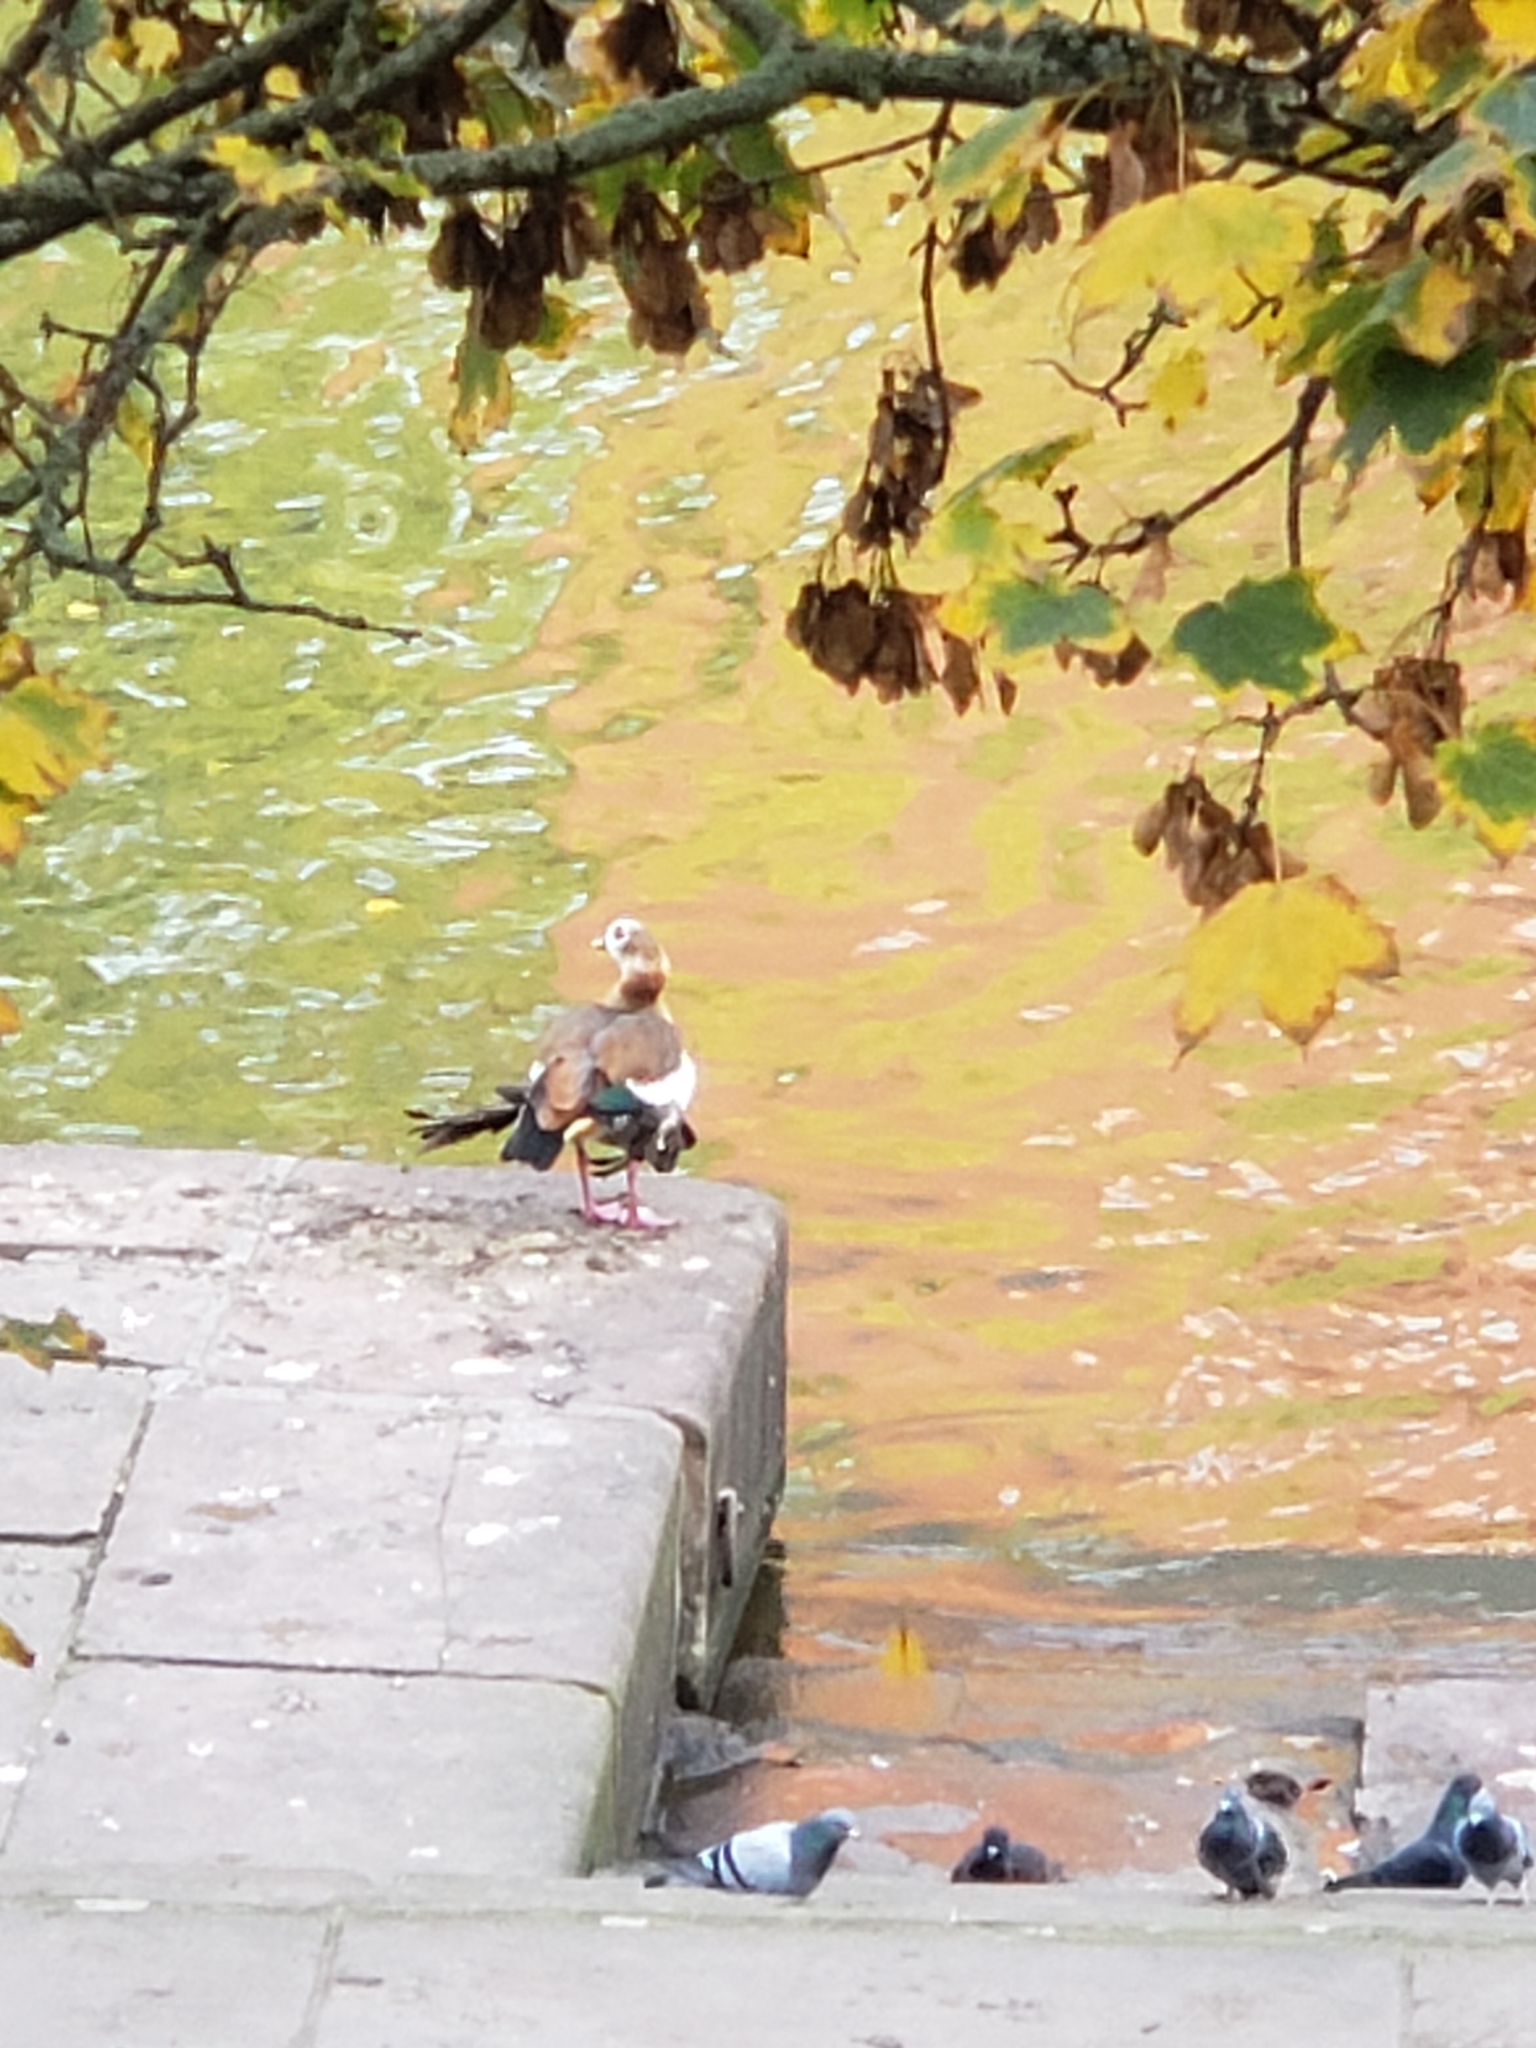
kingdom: Animalia
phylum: Chordata
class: Aves
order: Anseriformes
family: Anatidae
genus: Alopochen
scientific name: Alopochen aegyptiaca
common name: Egyptian goose
